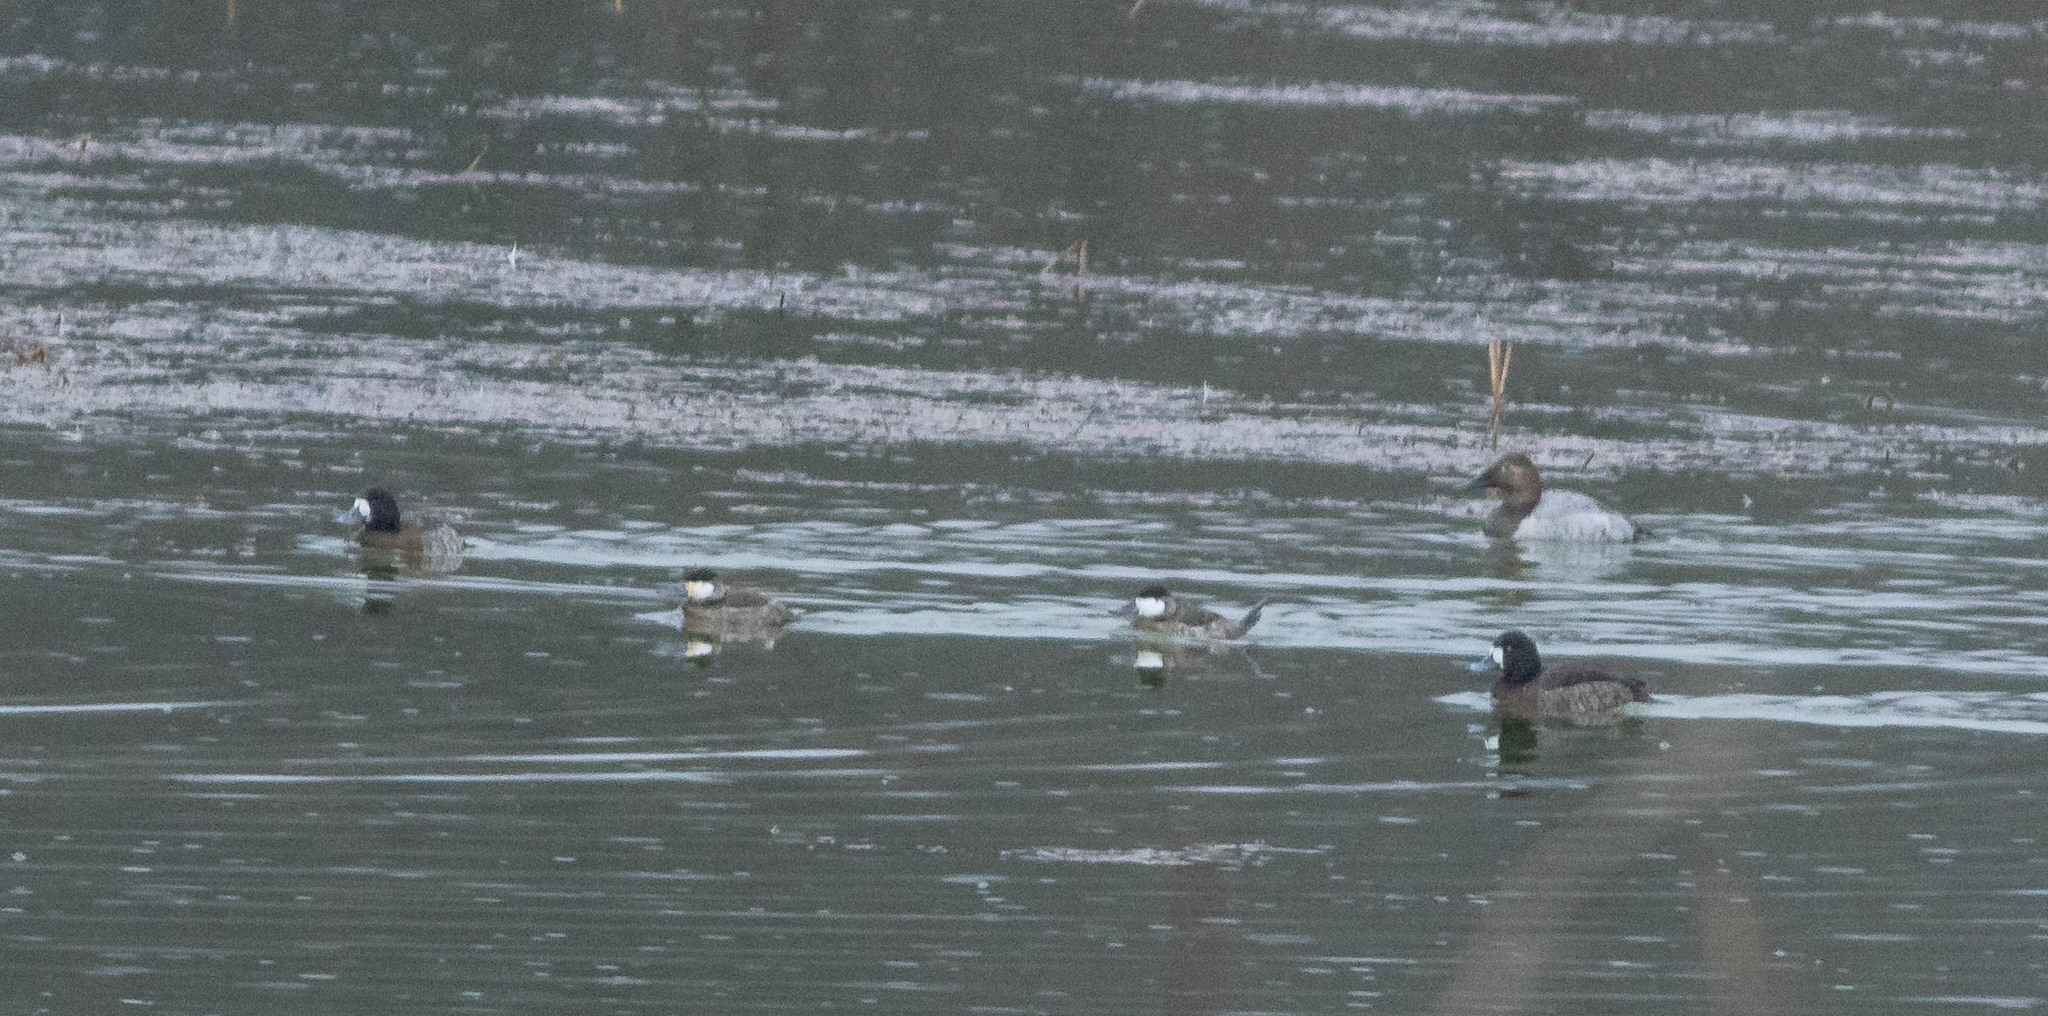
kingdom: Animalia
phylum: Chordata
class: Aves
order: Anseriformes
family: Anatidae
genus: Oxyura
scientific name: Oxyura jamaicensis
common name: Ruddy duck
